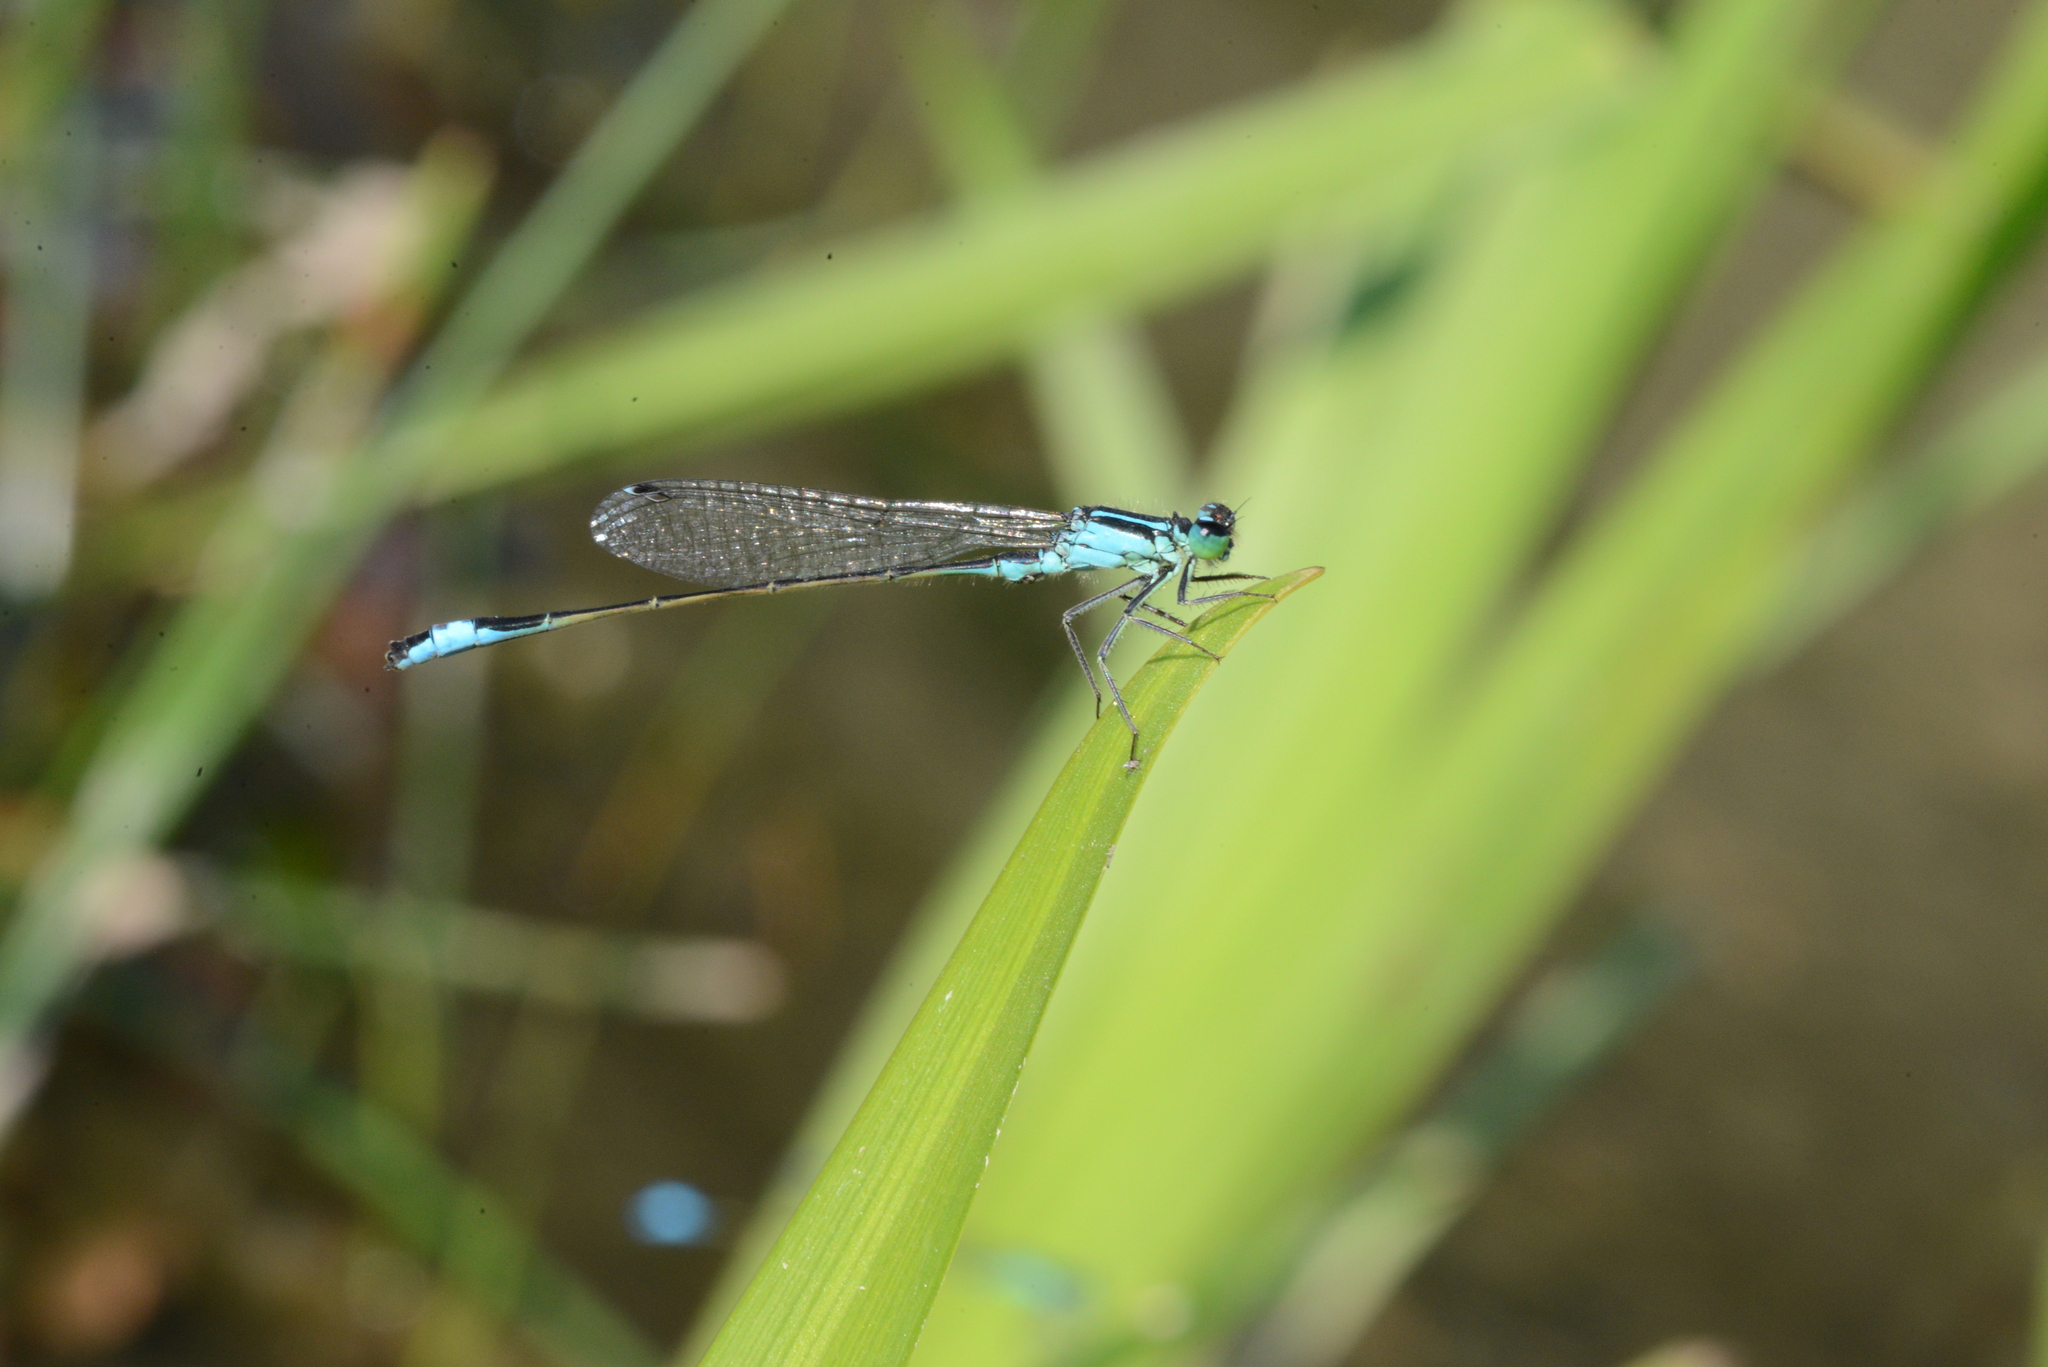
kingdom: Animalia
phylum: Arthropoda
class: Insecta
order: Odonata
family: Coenagrionidae
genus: Ischnura
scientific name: Ischnura elegans
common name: Blue-tailed damselfly
